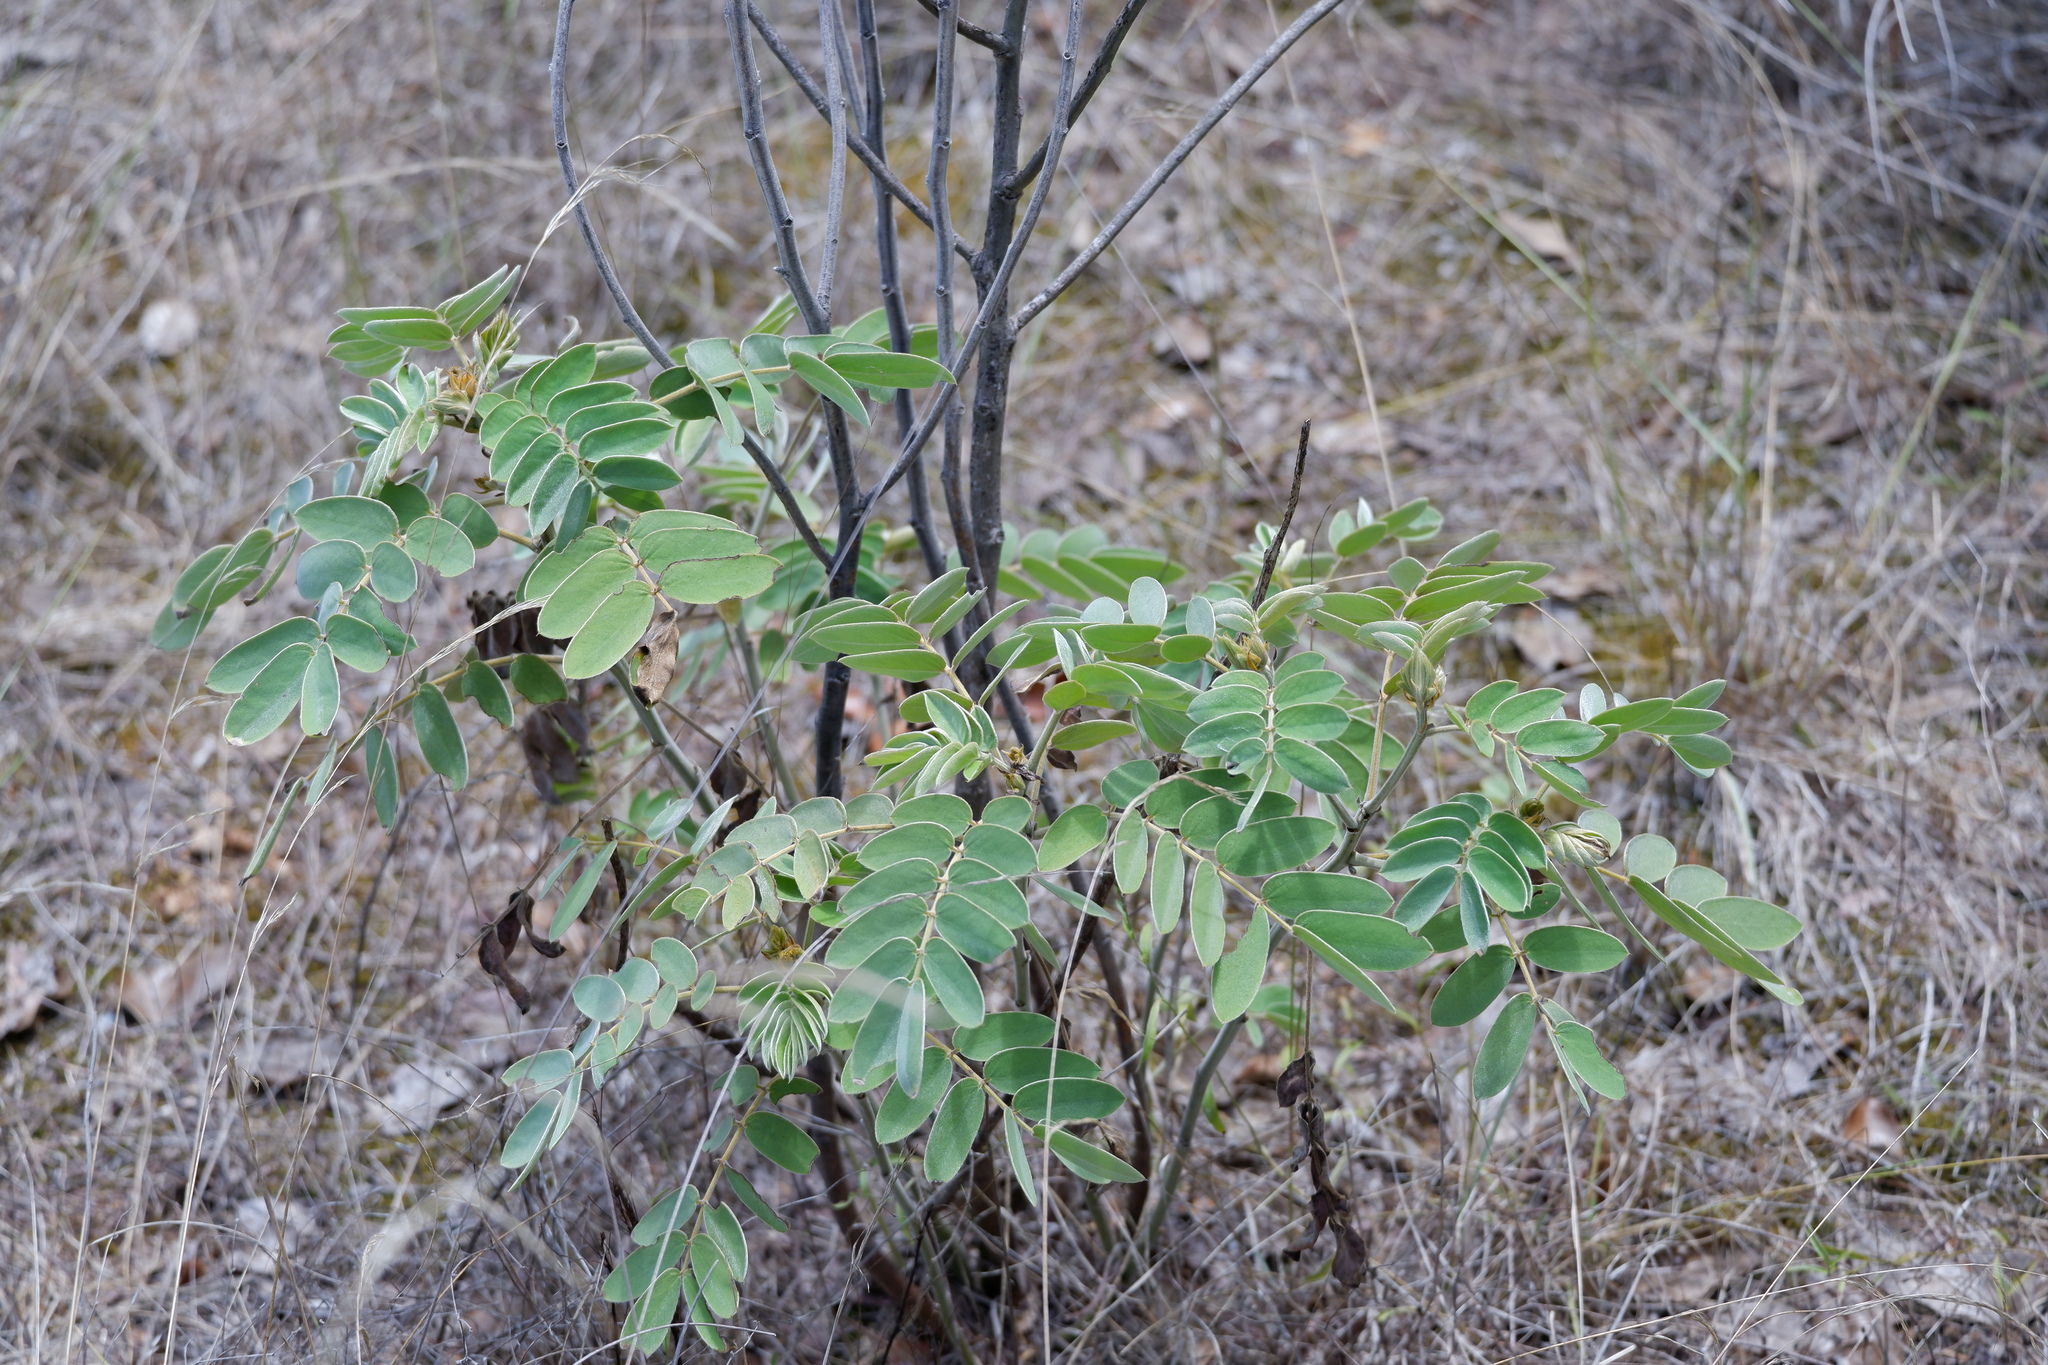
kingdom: Plantae
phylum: Tracheophyta
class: Magnoliopsida
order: Fabales
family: Fabaceae
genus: Senna
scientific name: Senna lindheimeriana
